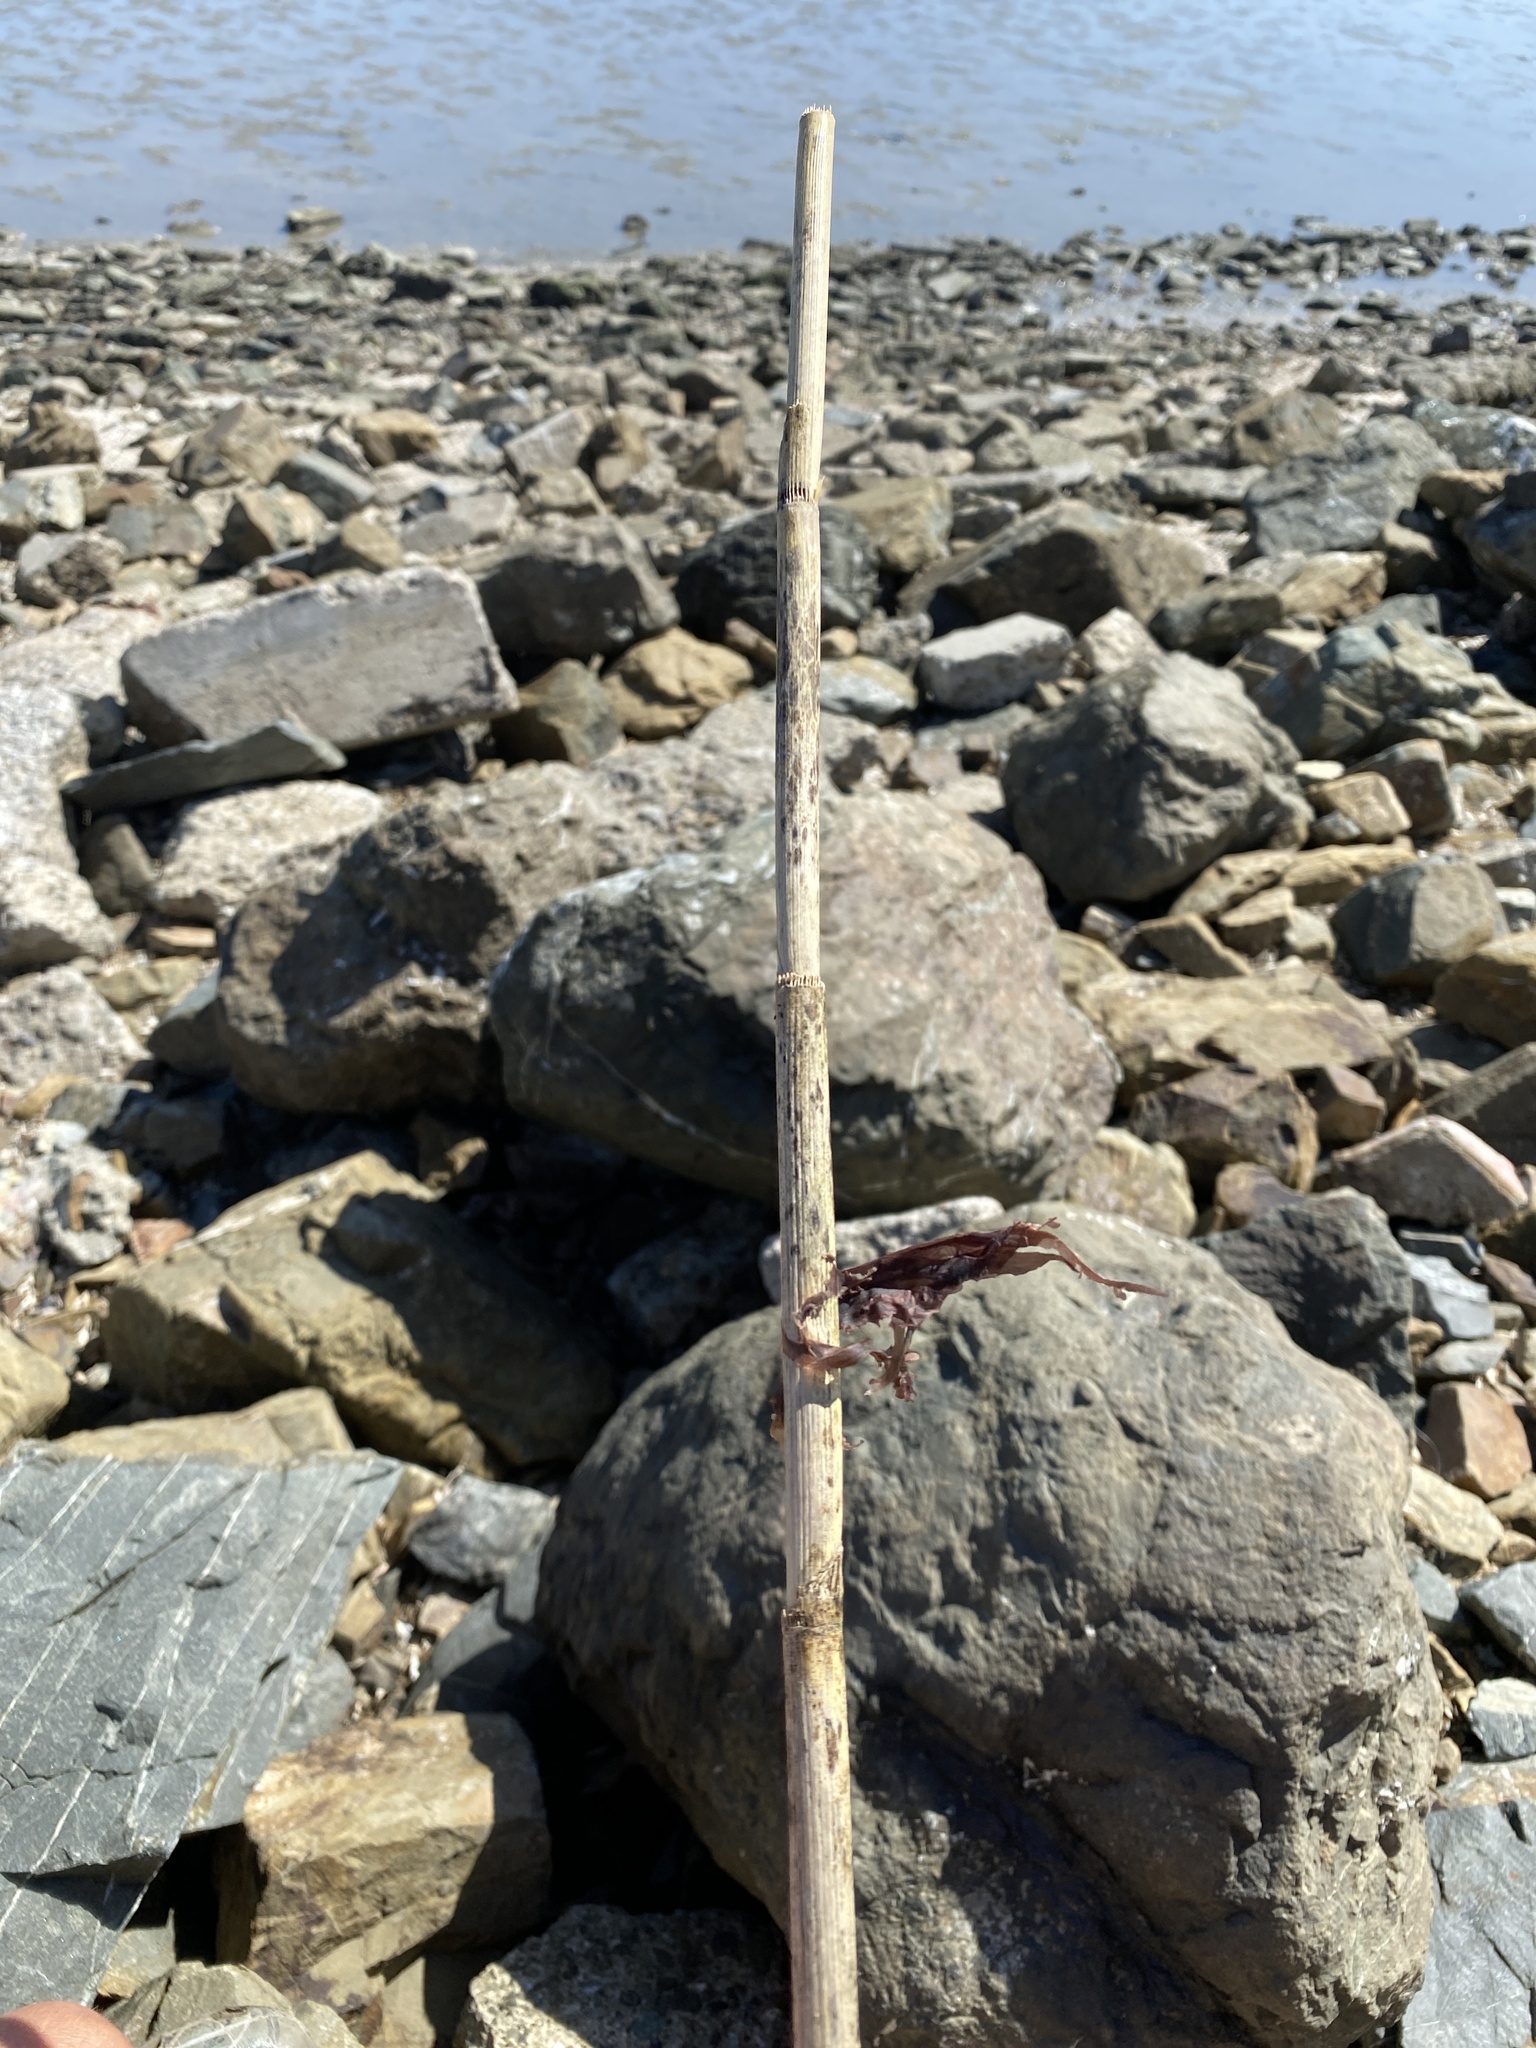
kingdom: Plantae
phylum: Tracheophyta
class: Magnoliopsida
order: Apiales
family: Apiaceae
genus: Foeniculum
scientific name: Foeniculum vulgare
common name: Fennel
